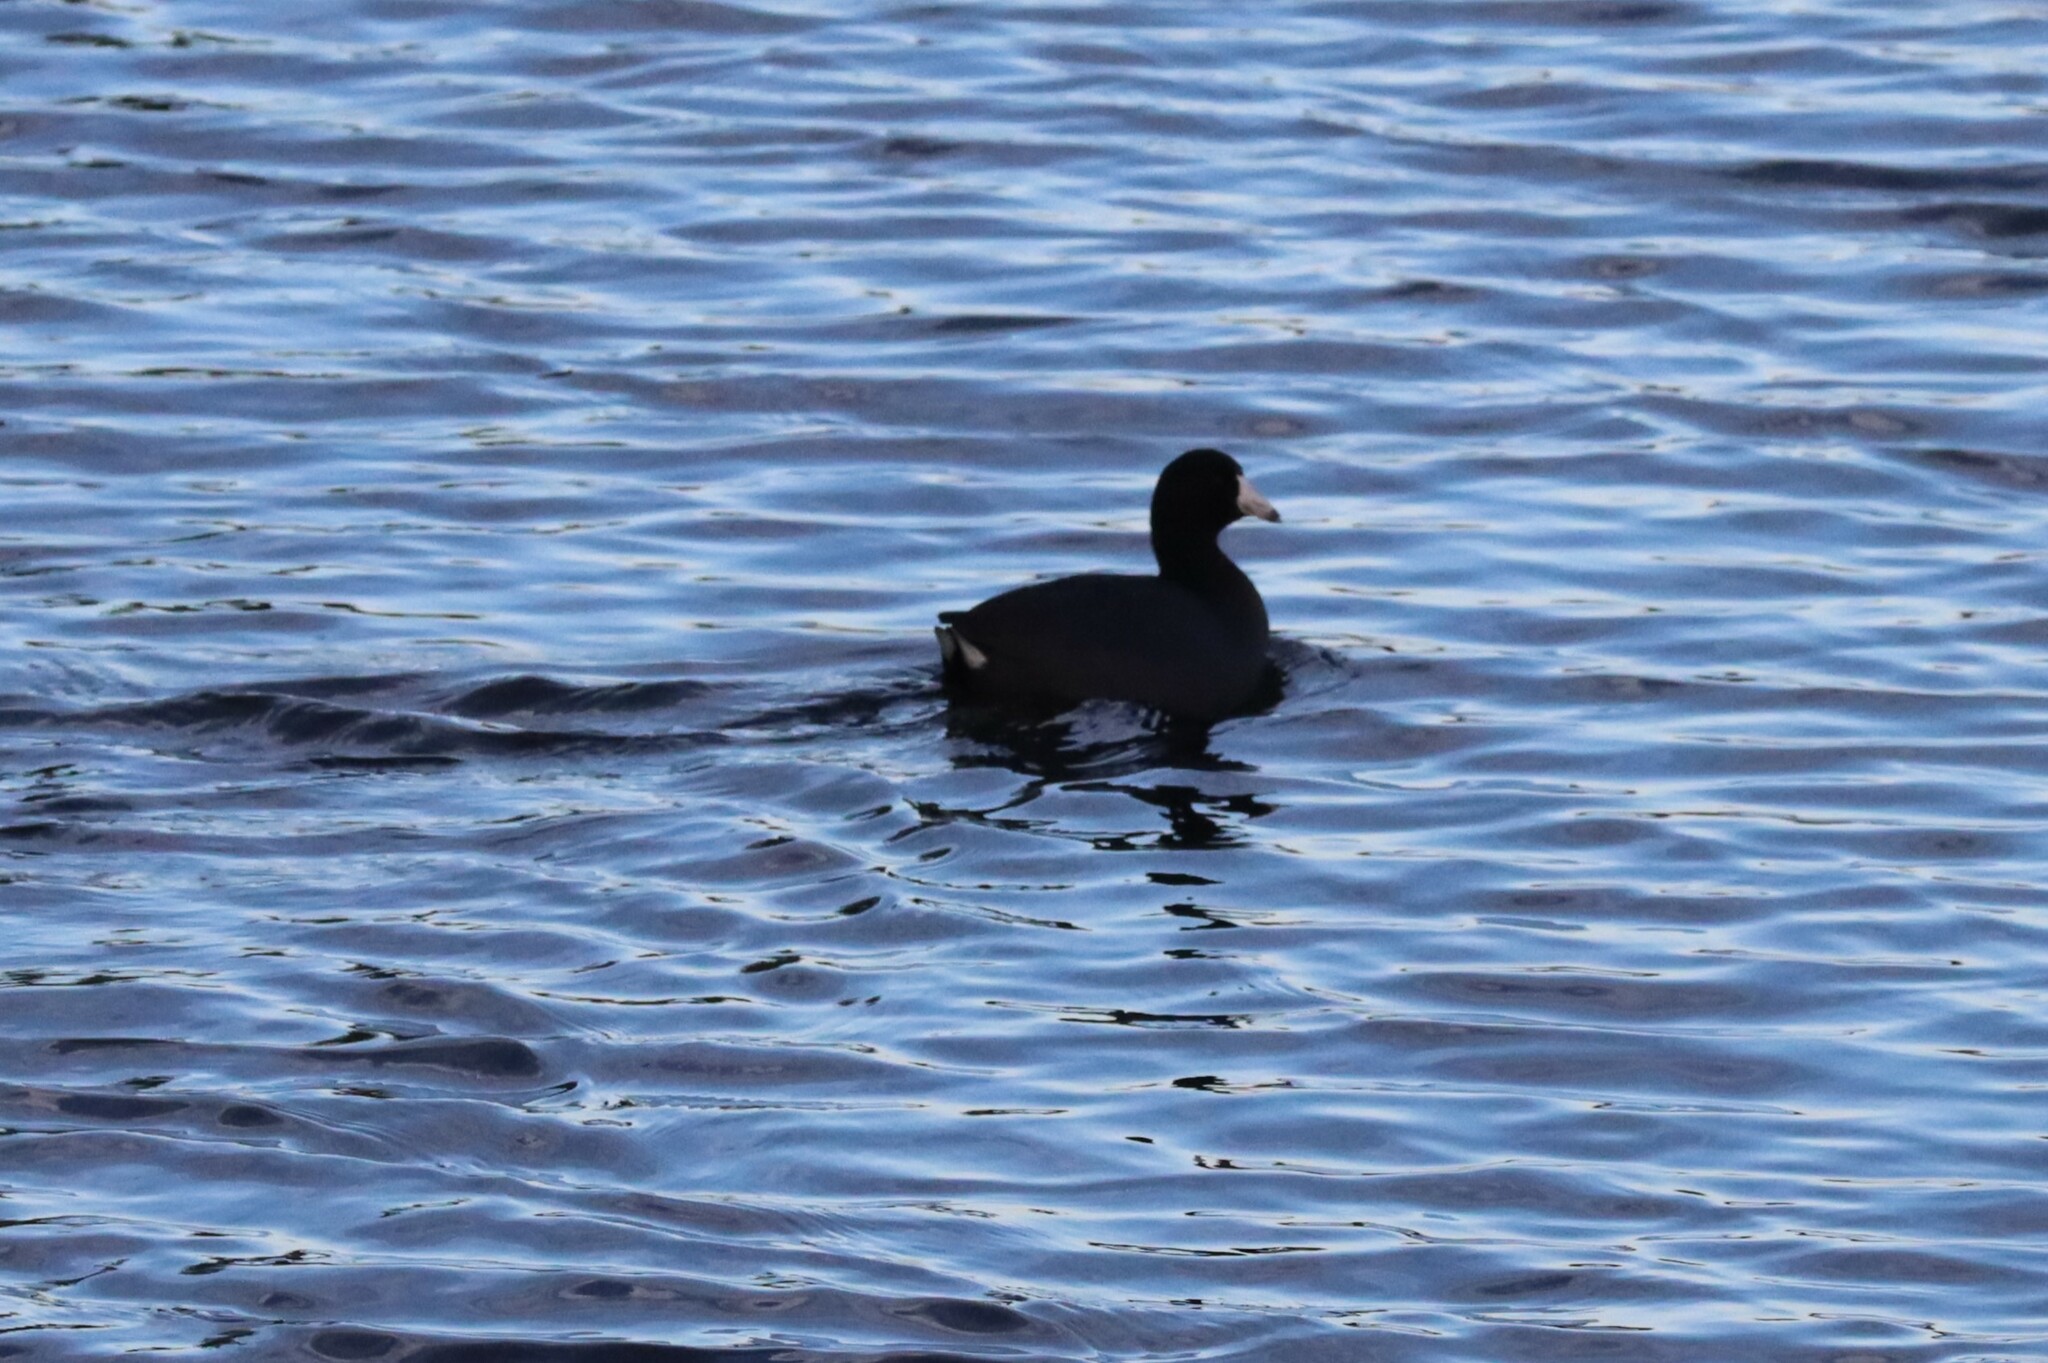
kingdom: Animalia
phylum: Chordata
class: Aves
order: Gruiformes
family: Rallidae
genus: Fulica
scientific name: Fulica americana
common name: American coot
